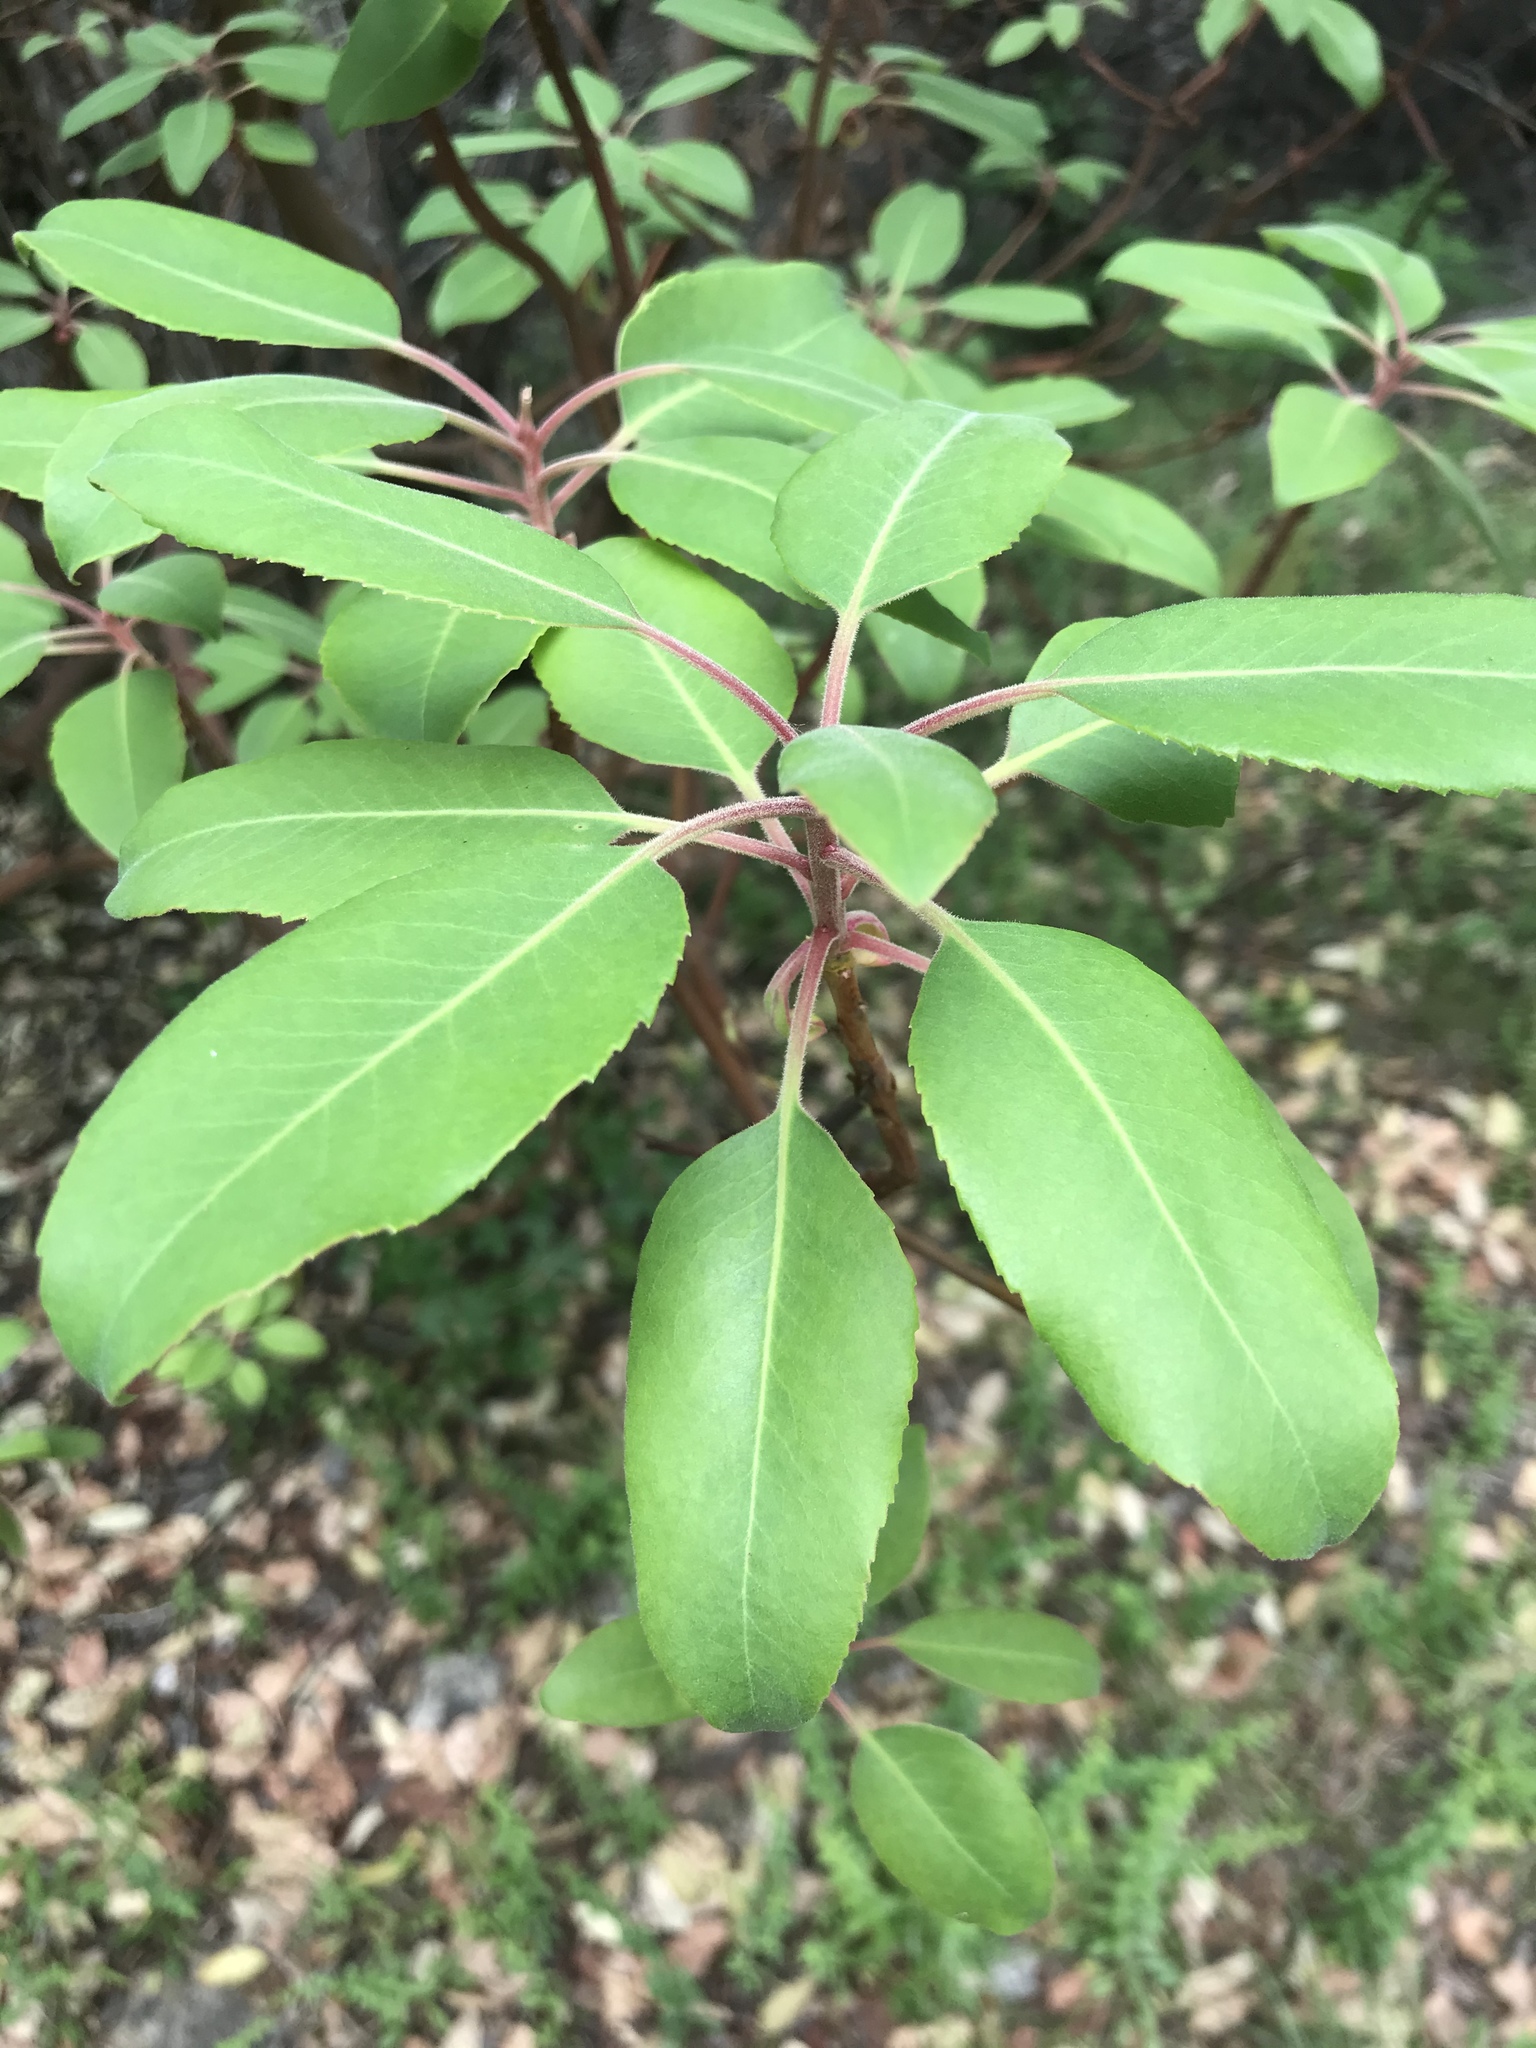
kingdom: Plantae
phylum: Tracheophyta
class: Magnoliopsida
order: Ericales
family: Ericaceae
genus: Arbutus
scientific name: Arbutus xalapensis
